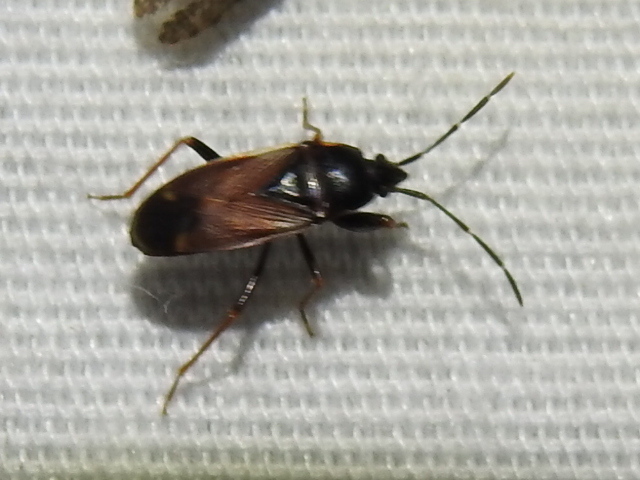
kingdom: Animalia
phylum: Arthropoda
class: Insecta
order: Hemiptera
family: Rhyparochromidae
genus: Eremocoris
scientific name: Eremocoris depressus
